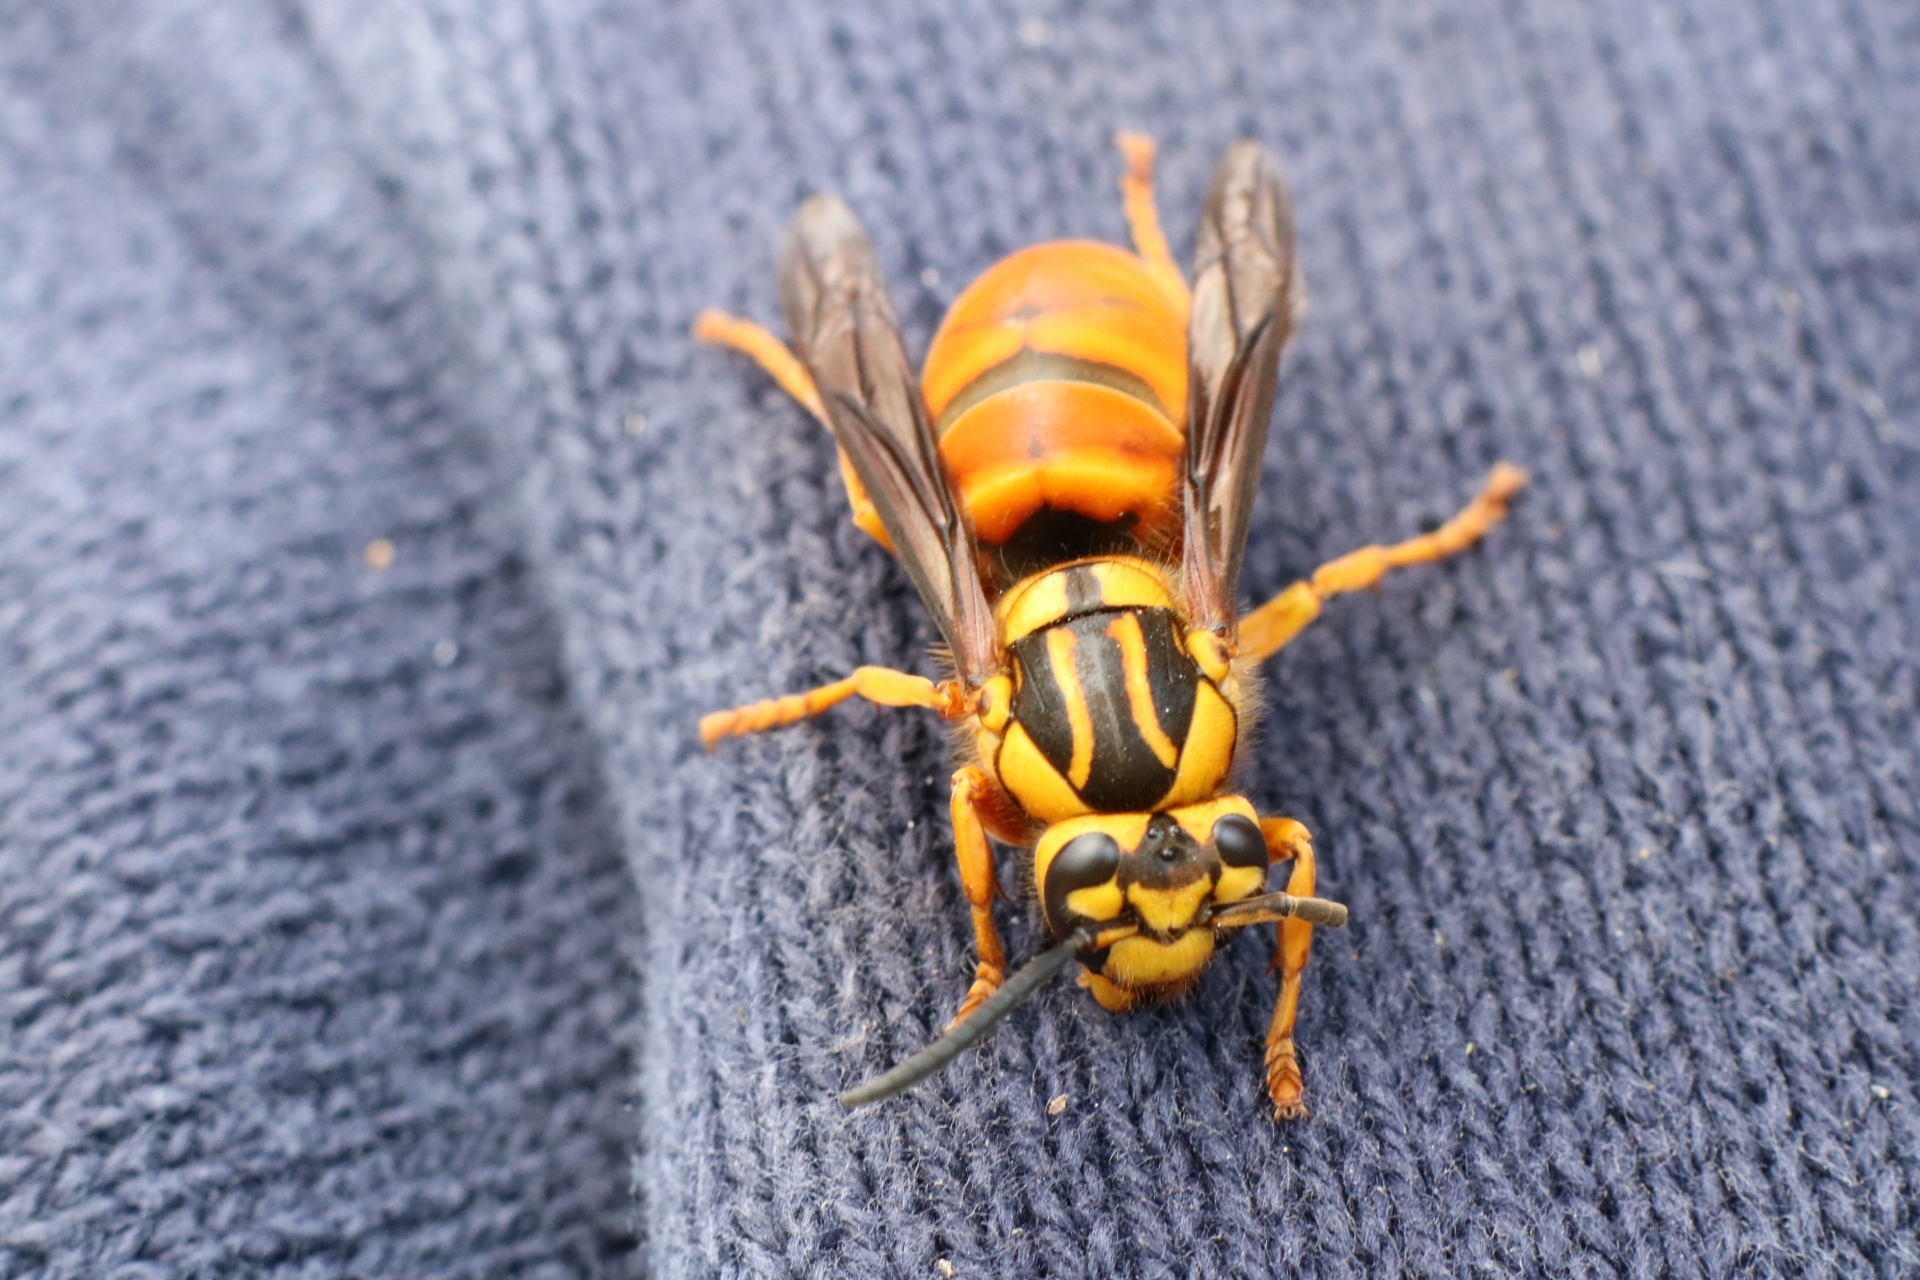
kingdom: Animalia
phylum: Arthropoda
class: Insecta
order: Hymenoptera
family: Vespidae
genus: Vespula
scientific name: Vespula squamosa
